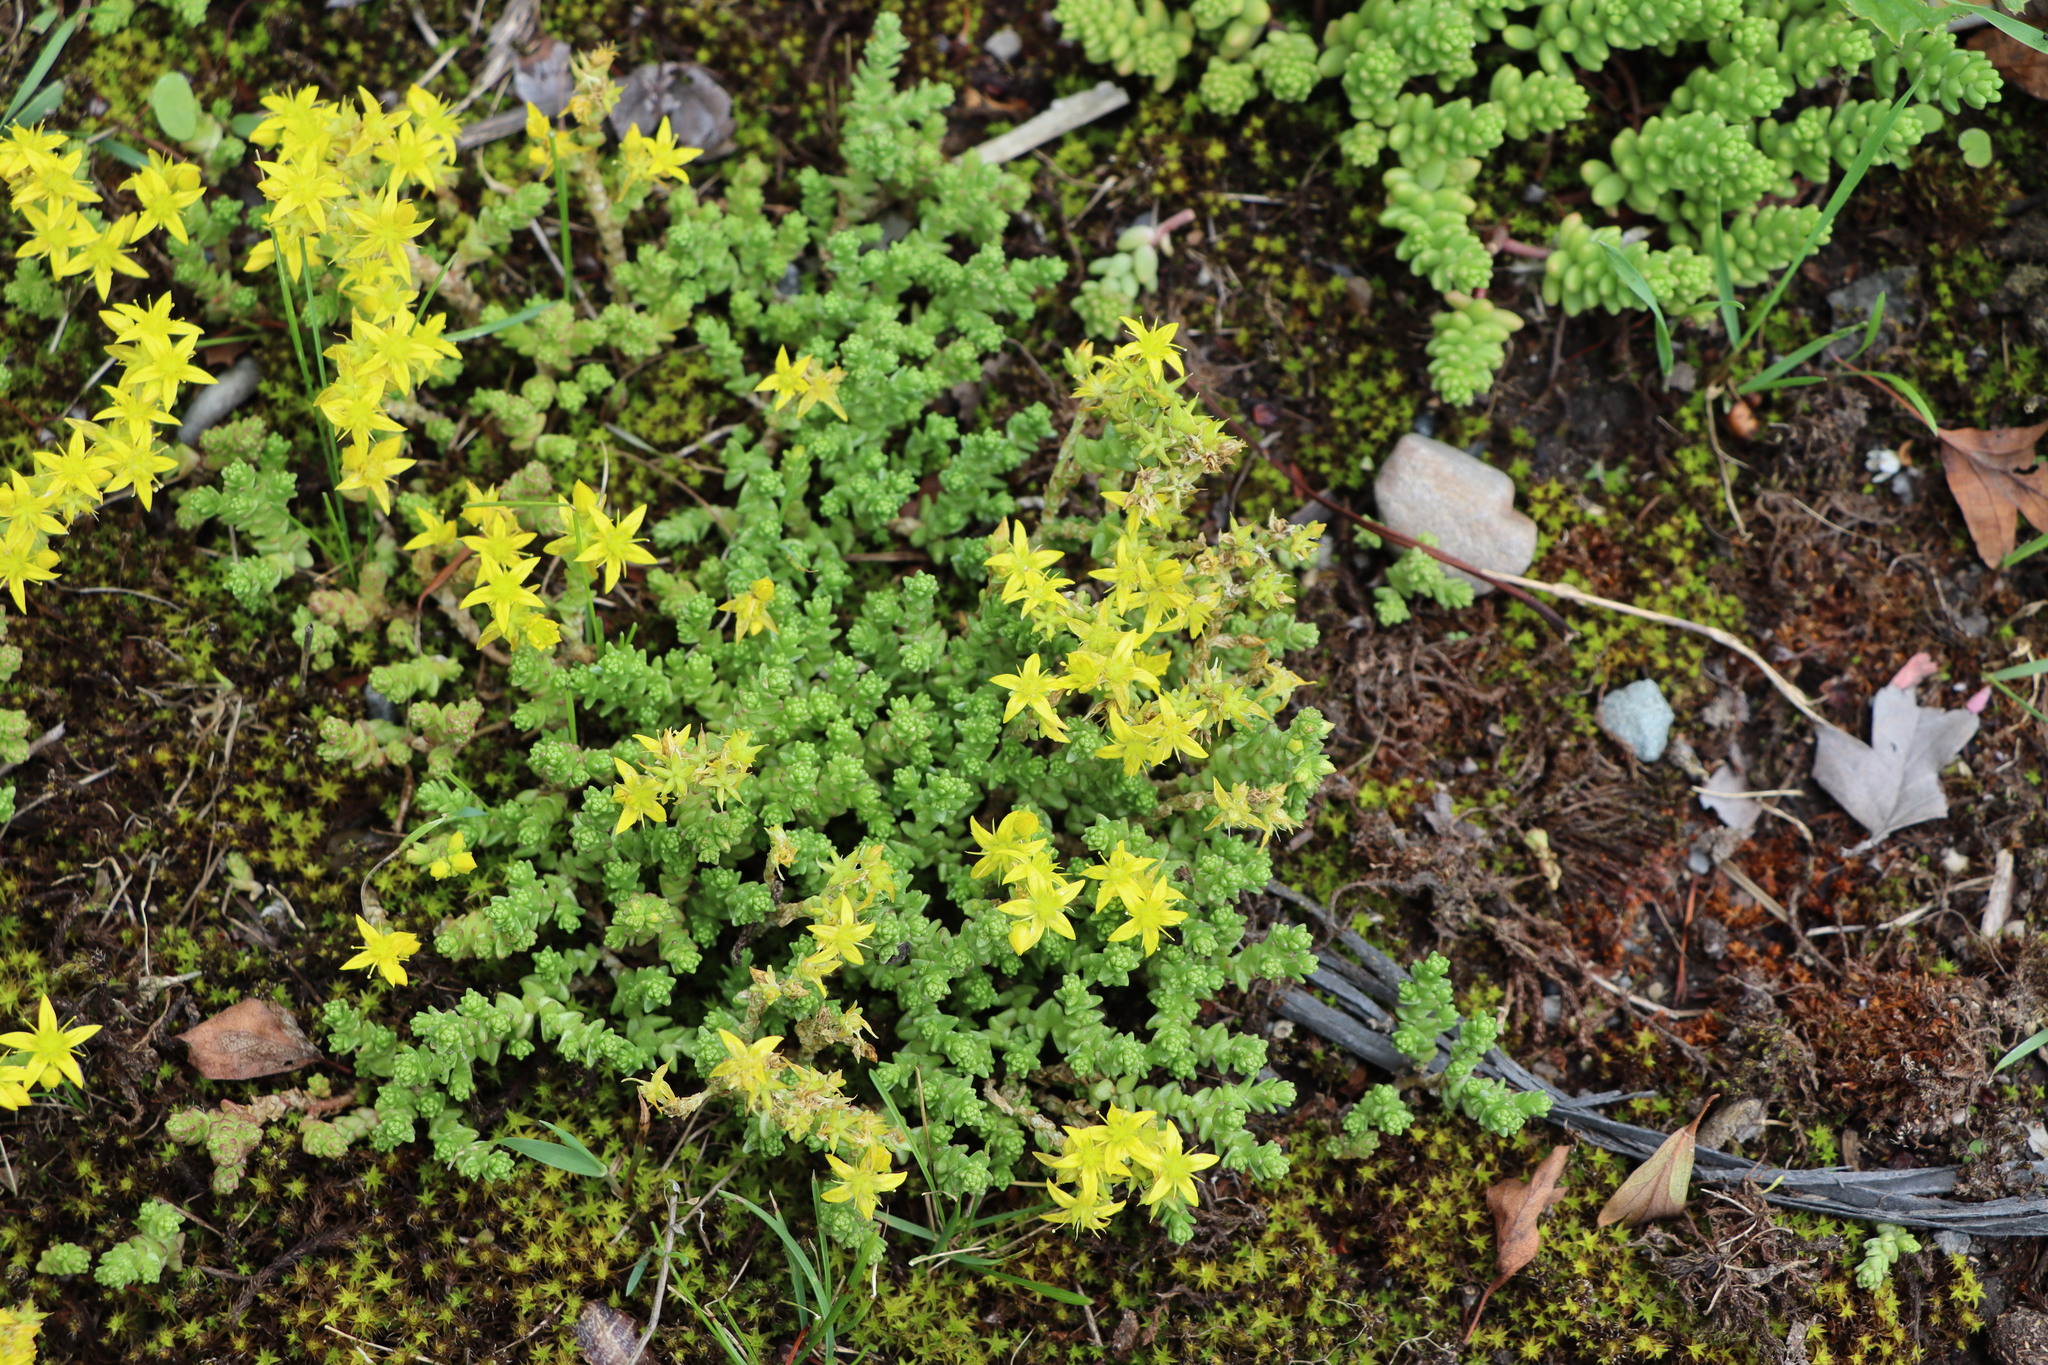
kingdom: Plantae
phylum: Tracheophyta
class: Magnoliopsida
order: Saxifragales
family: Crassulaceae
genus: Sedum
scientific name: Sedum acre
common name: Biting stonecrop
